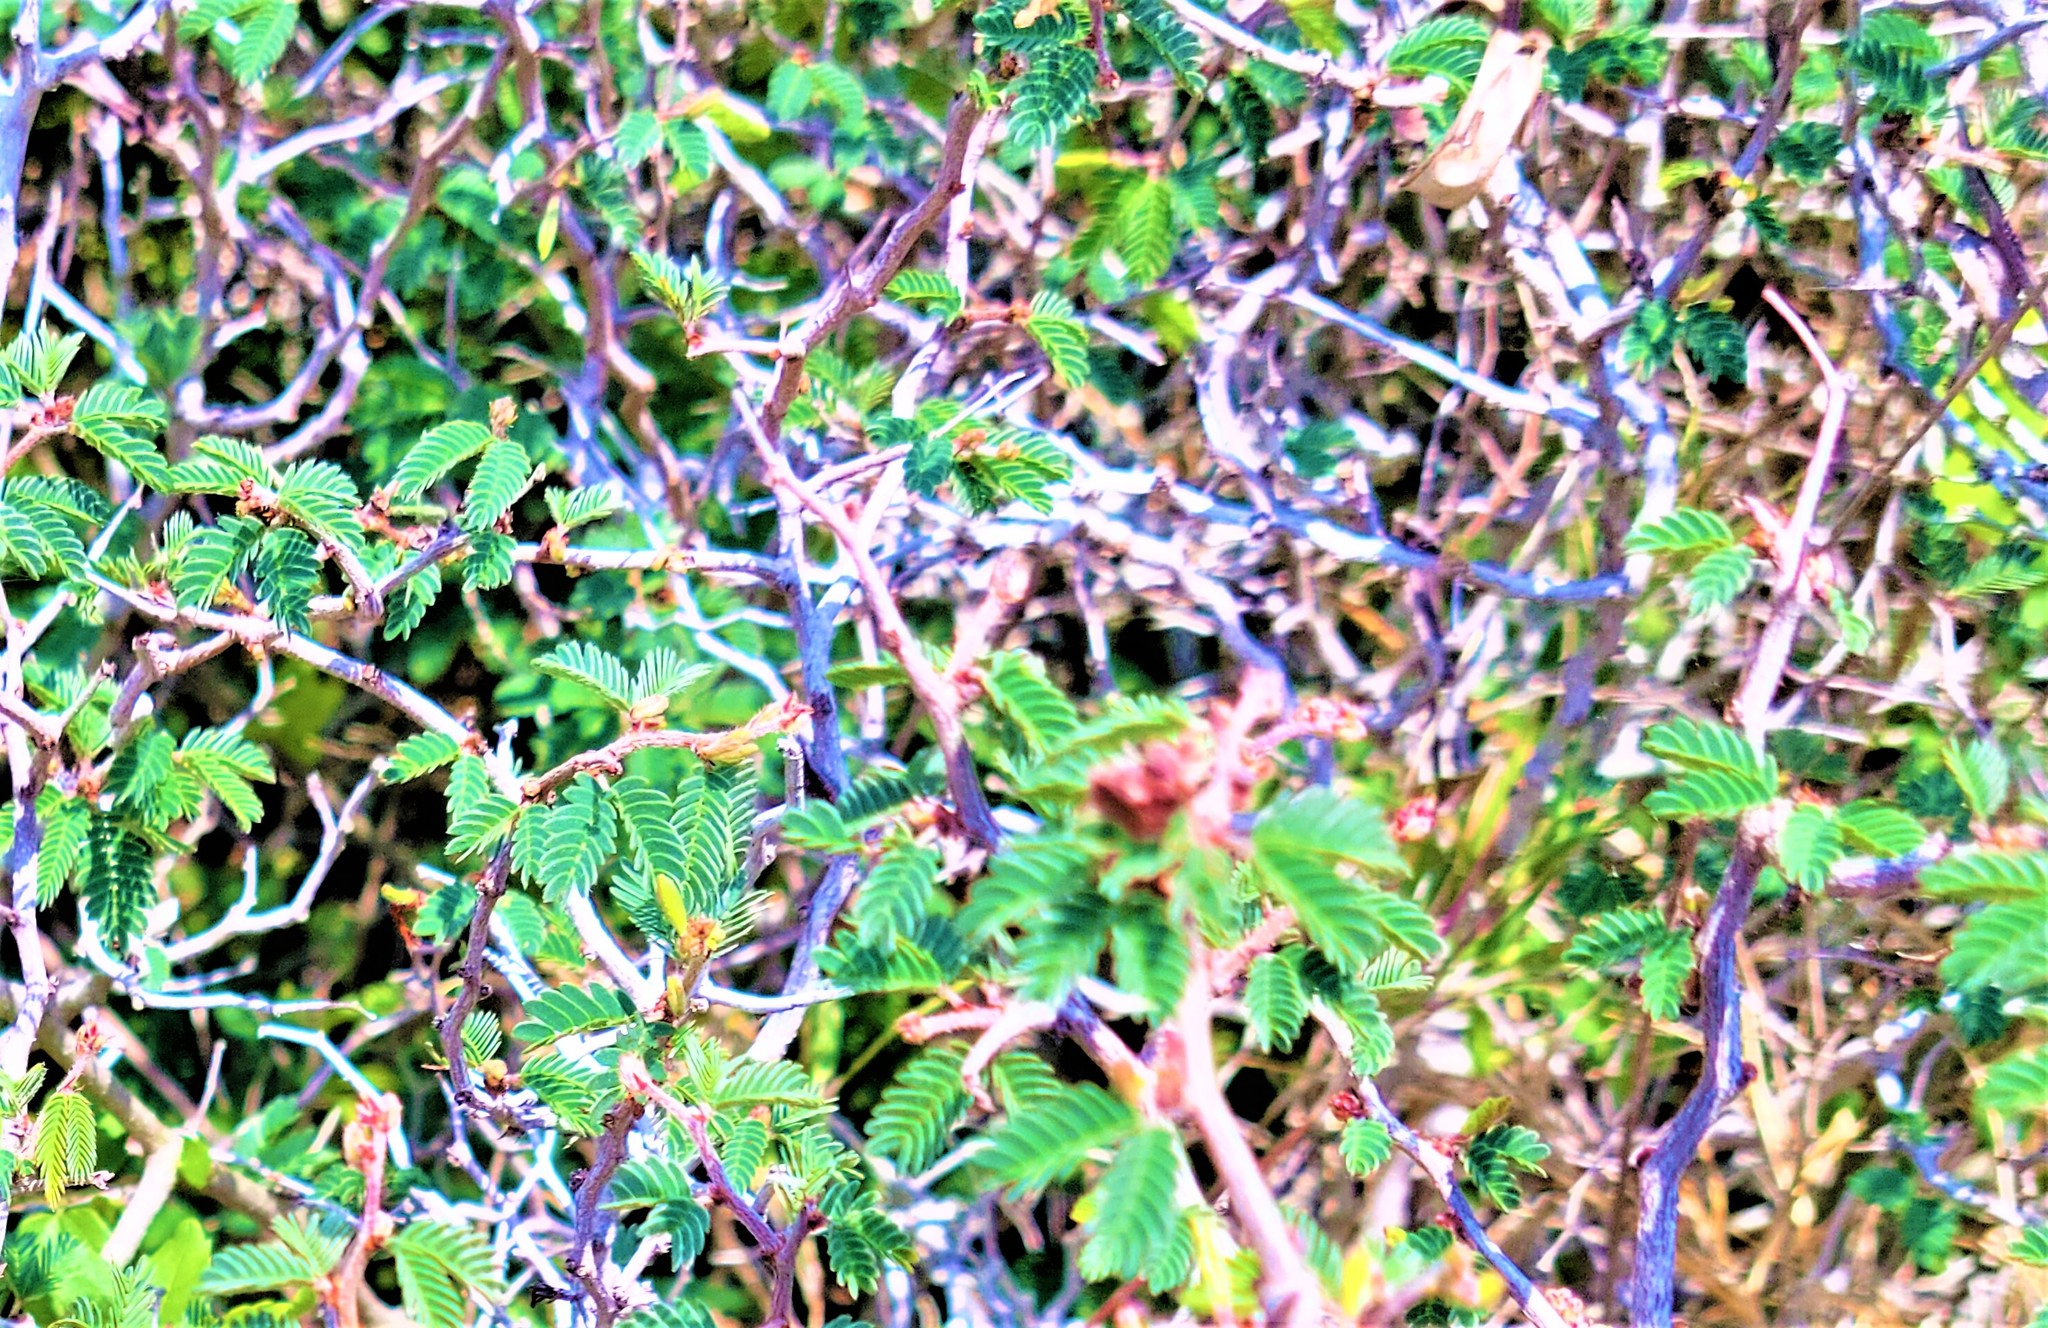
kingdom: Plantae
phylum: Tracheophyta
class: Magnoliopsida
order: Fabales
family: Fabaceae
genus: Calliandra
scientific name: Calliandra conferta
